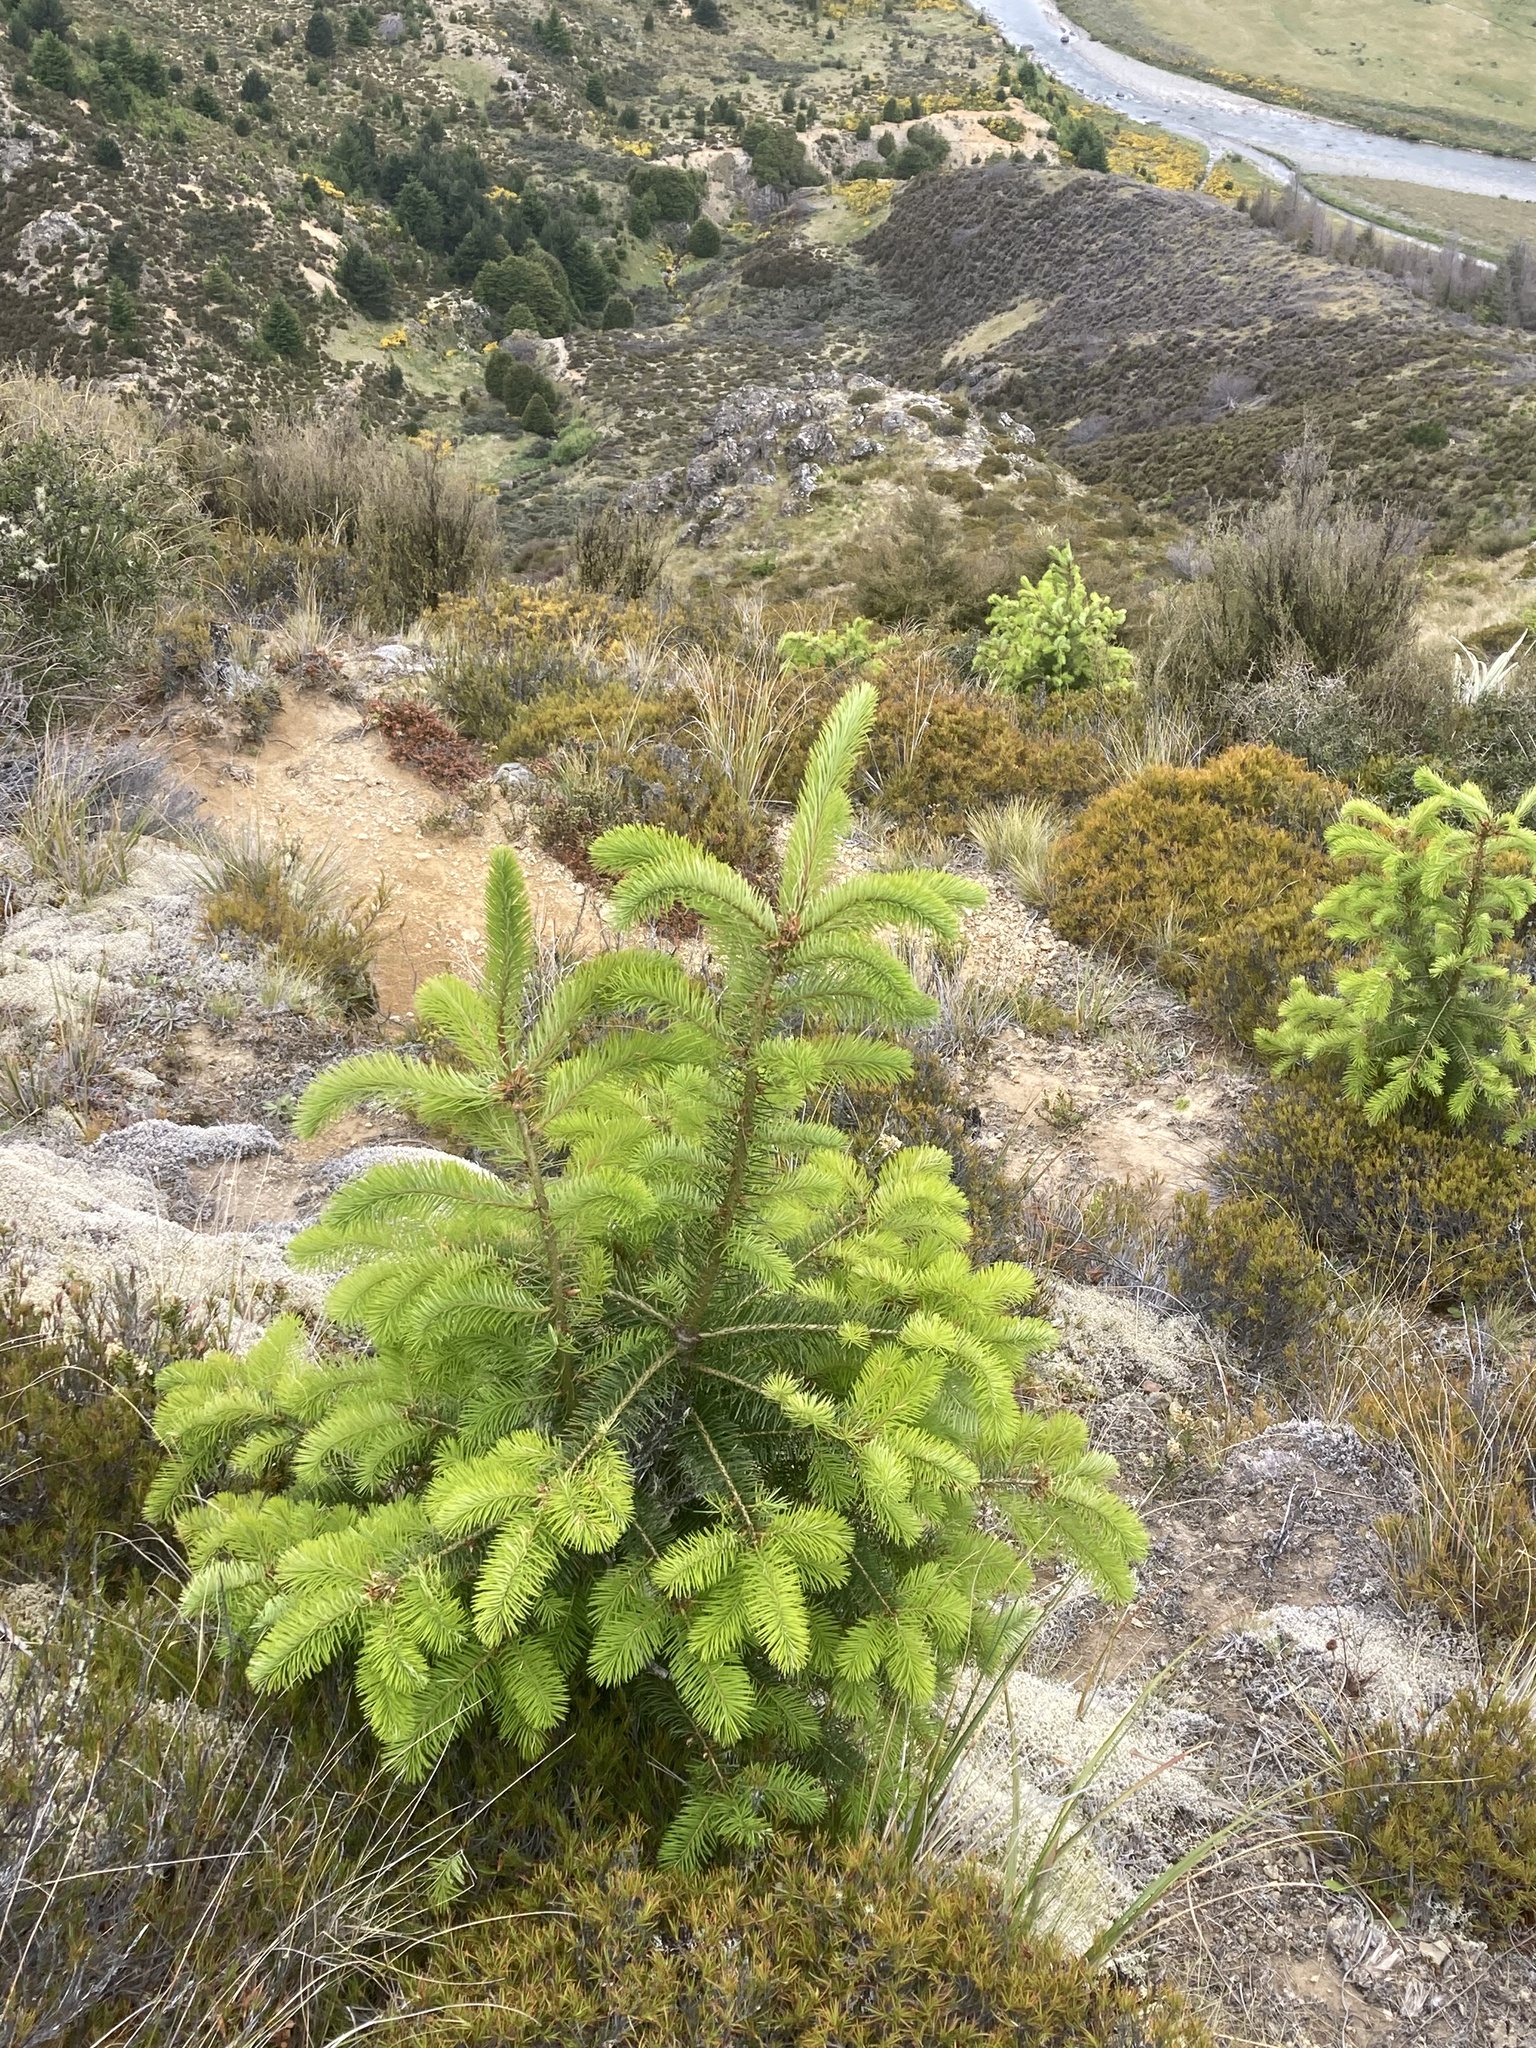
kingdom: Plantae
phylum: Tracheophyta
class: Pinopsida
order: Pinales
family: Pinaceae
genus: Pseudotsuga
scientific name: Pseudotsuga menziesii
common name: Douglas fir
